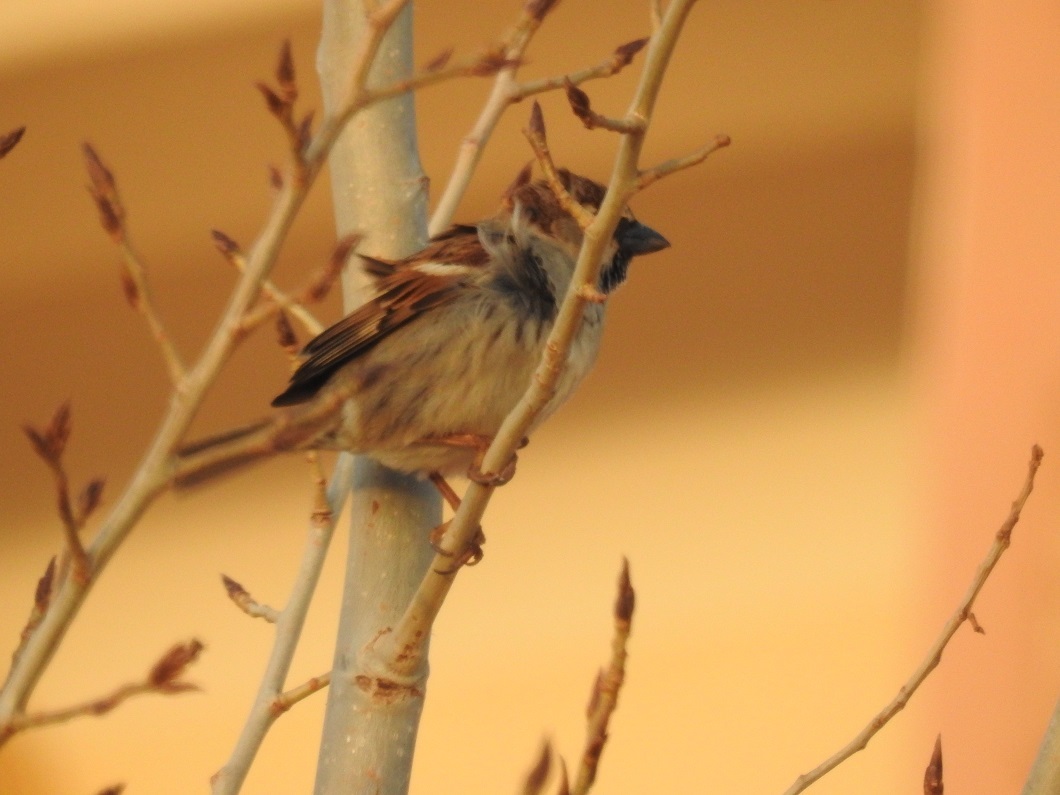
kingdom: Animalia
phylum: Chordata
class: Aves
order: Passeriformes
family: Passeridae
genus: Passer
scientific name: Passer domesticus
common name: House sparrow
